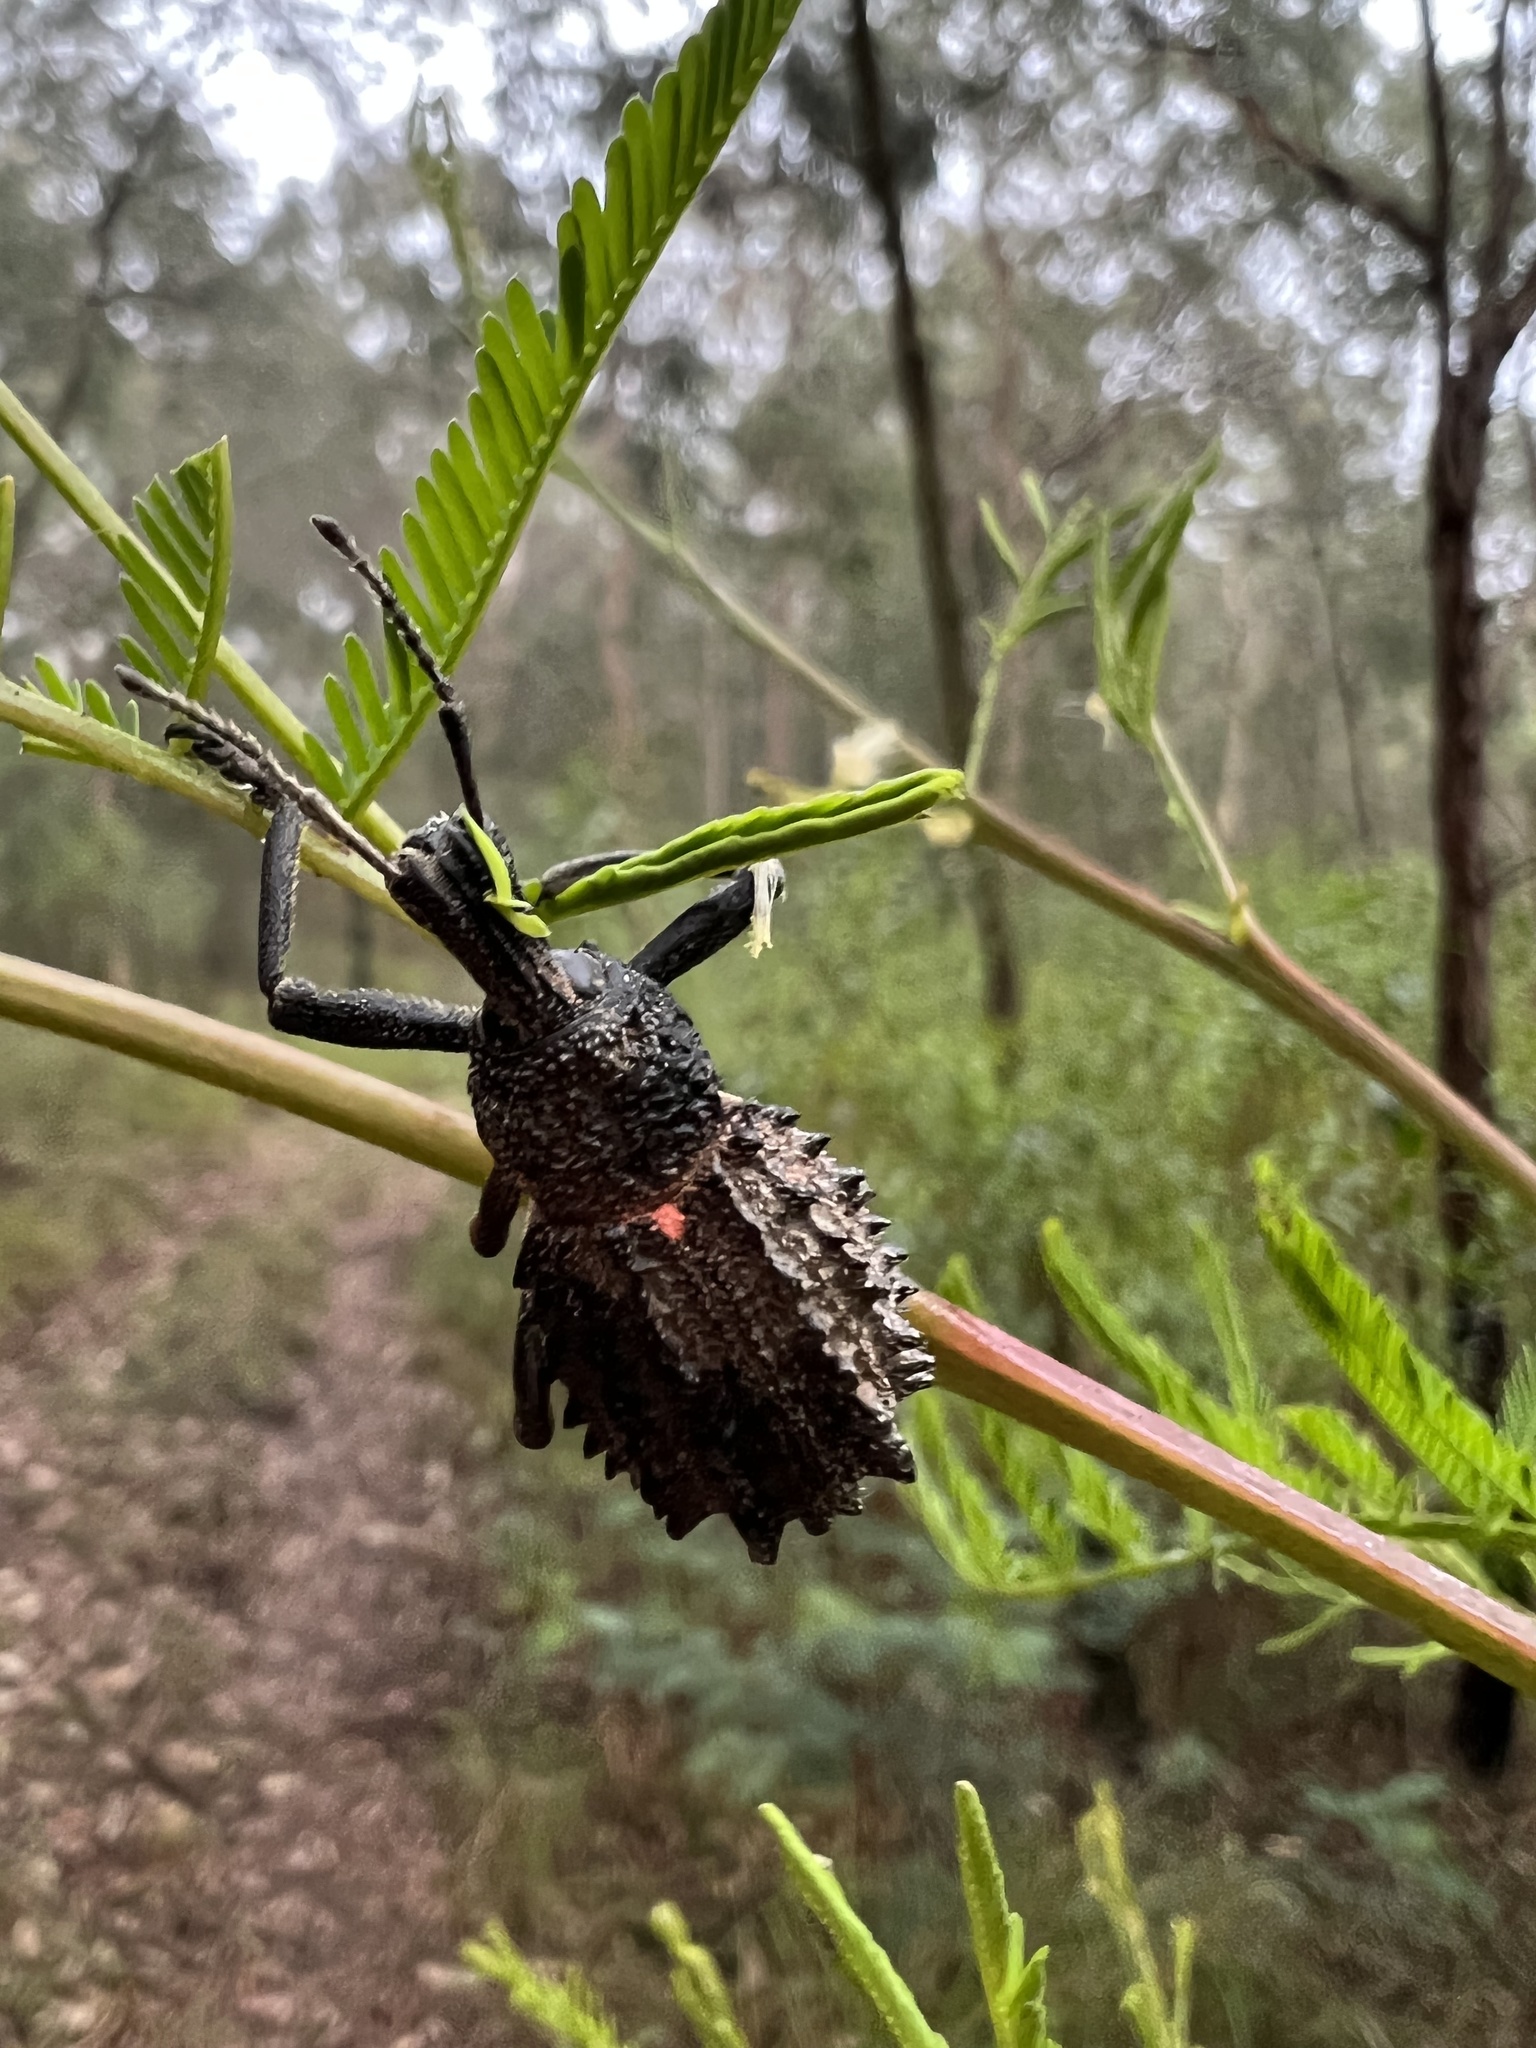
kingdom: Animalia
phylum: Arthropoda
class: Insecta
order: Coleoptera
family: Curculionidae
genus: Leptopius
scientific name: Leptopius duponti
